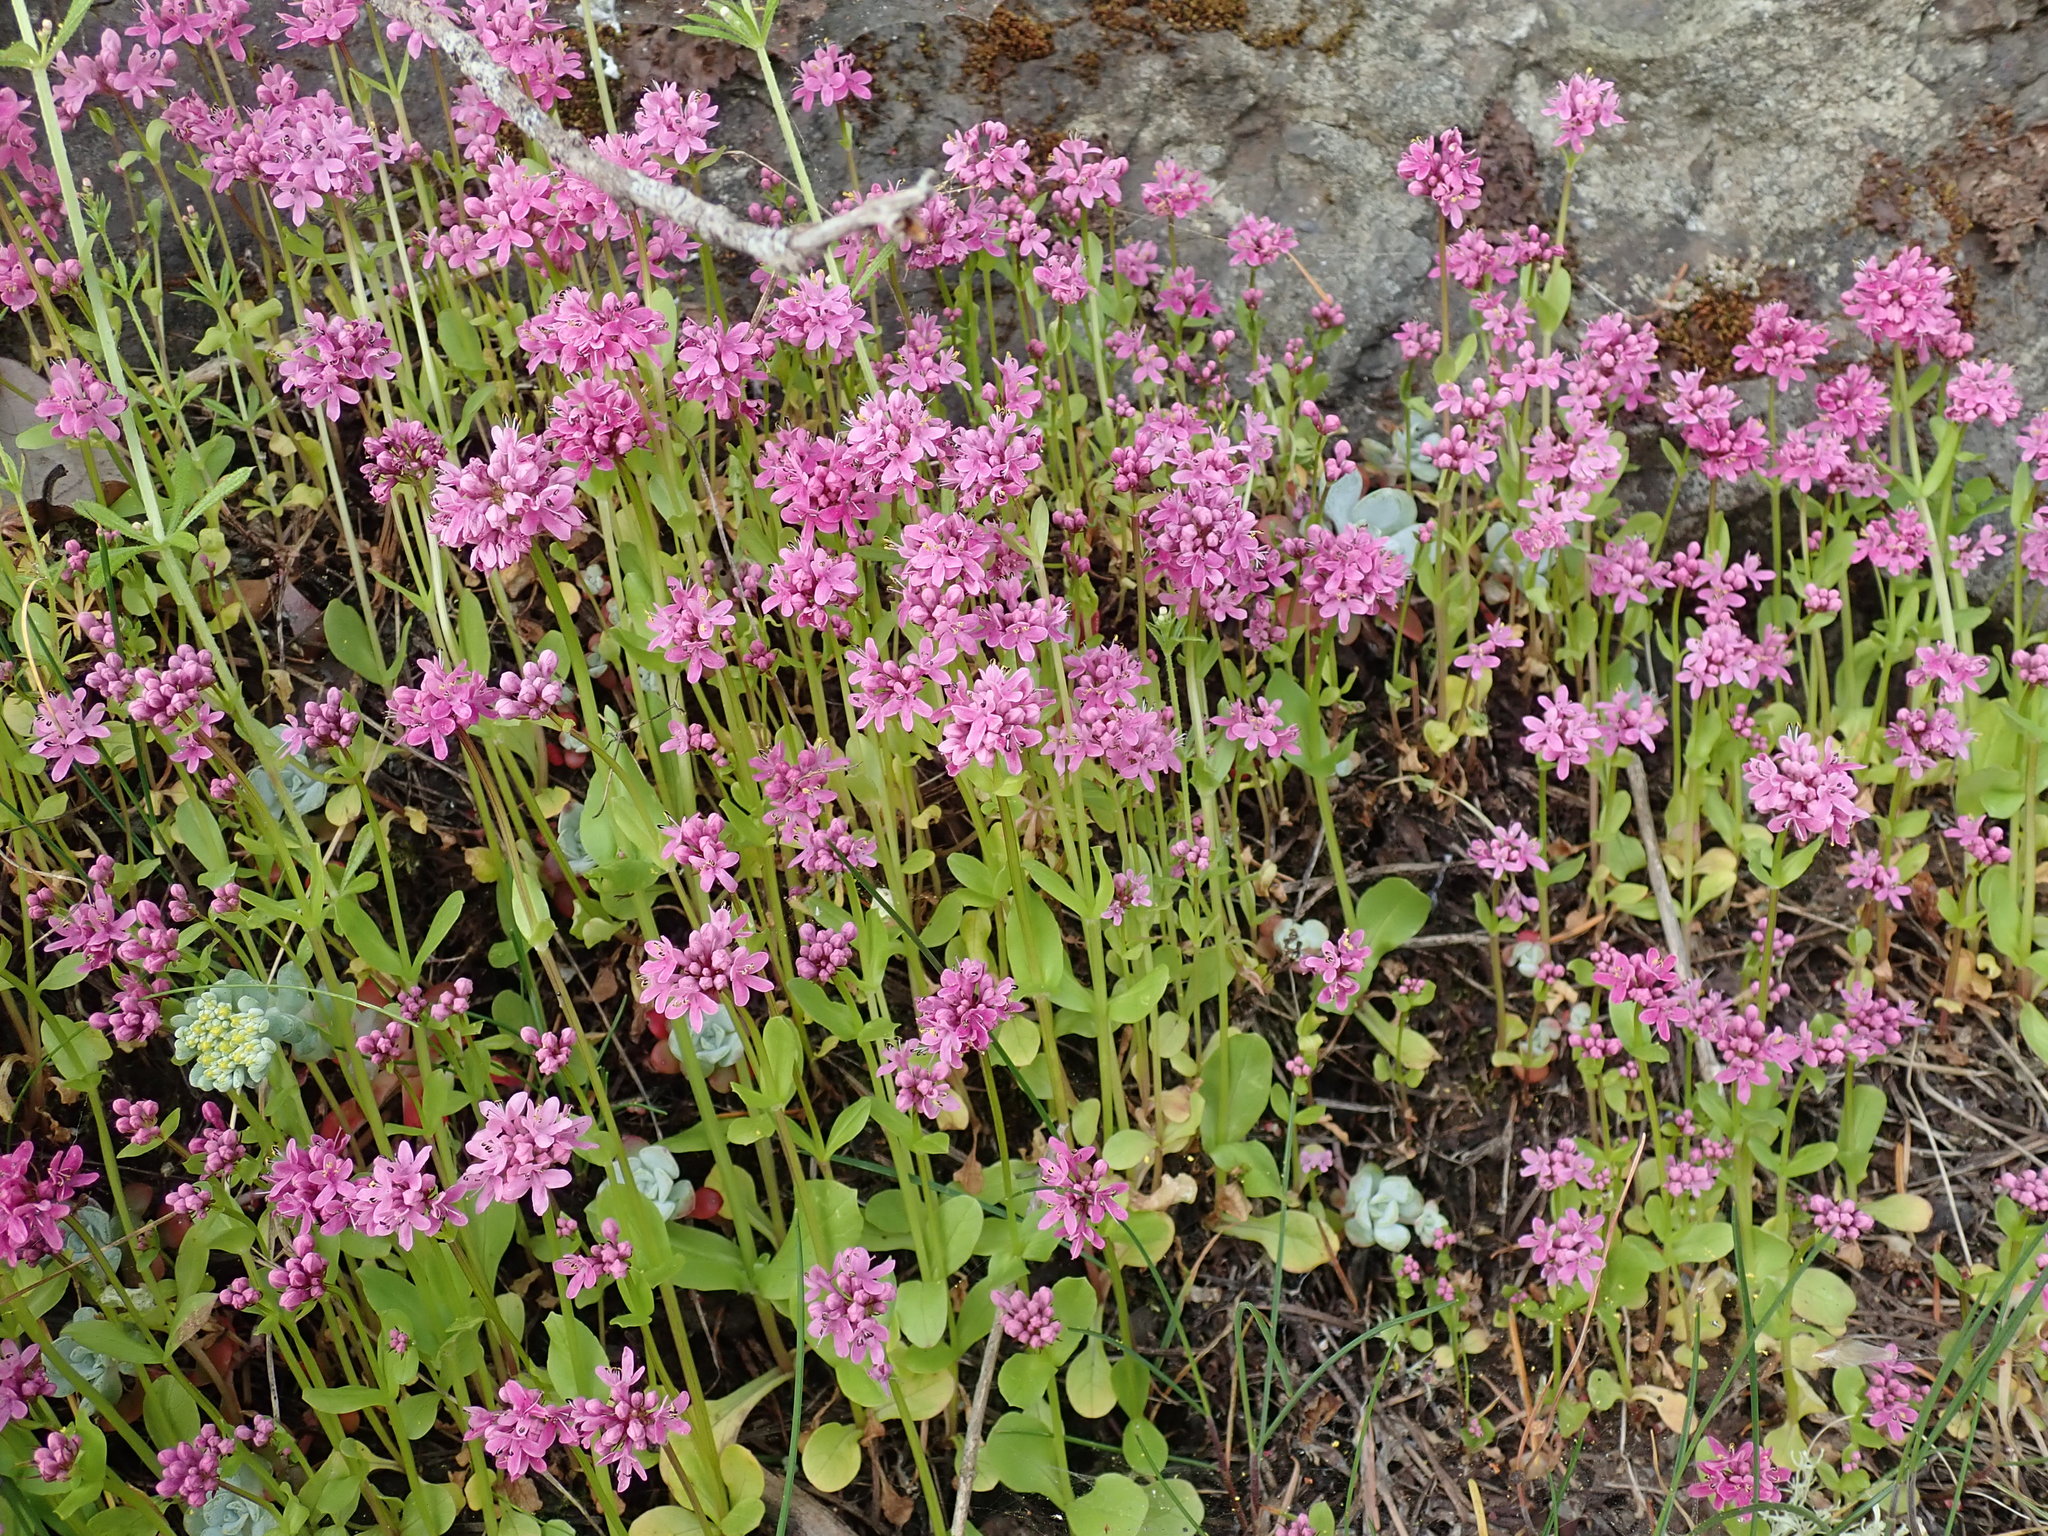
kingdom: Plantae
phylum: Tracheophyta
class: Magnoliopsida
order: Dipsacales
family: Caprifoliaceae
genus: Plectritis
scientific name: Plectritis congesta
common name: Pink plectritis
